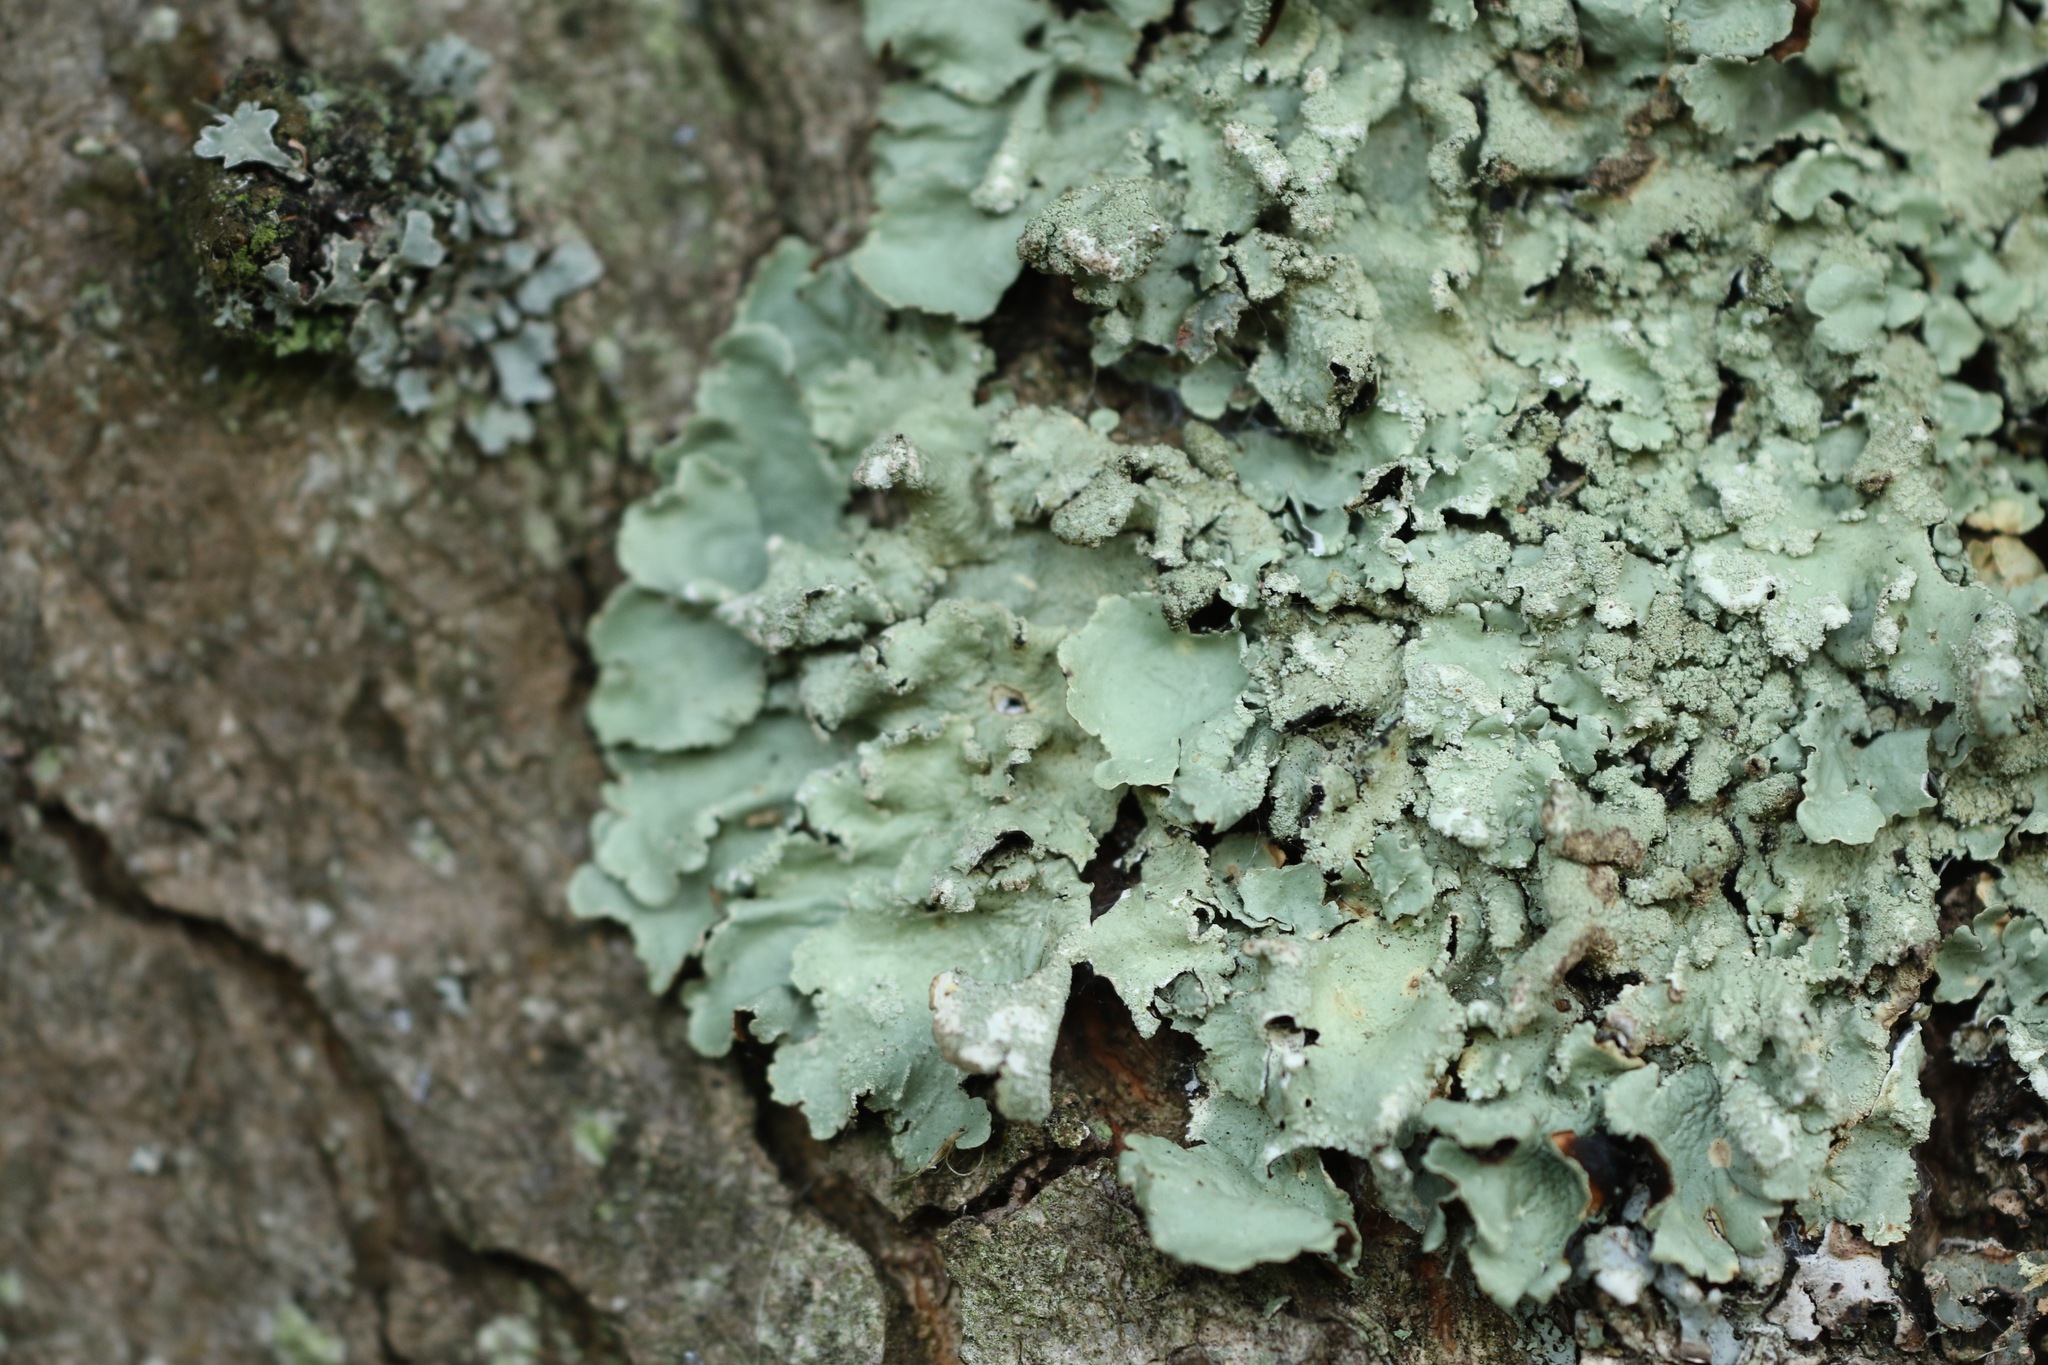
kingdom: Fungi
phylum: Ascomycota
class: Lecanoromycetes
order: Lecanorales
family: Parmeliaceae
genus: Flavoparmelia
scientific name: Flavoparmelia caperata
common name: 40-mile per hour lichen
